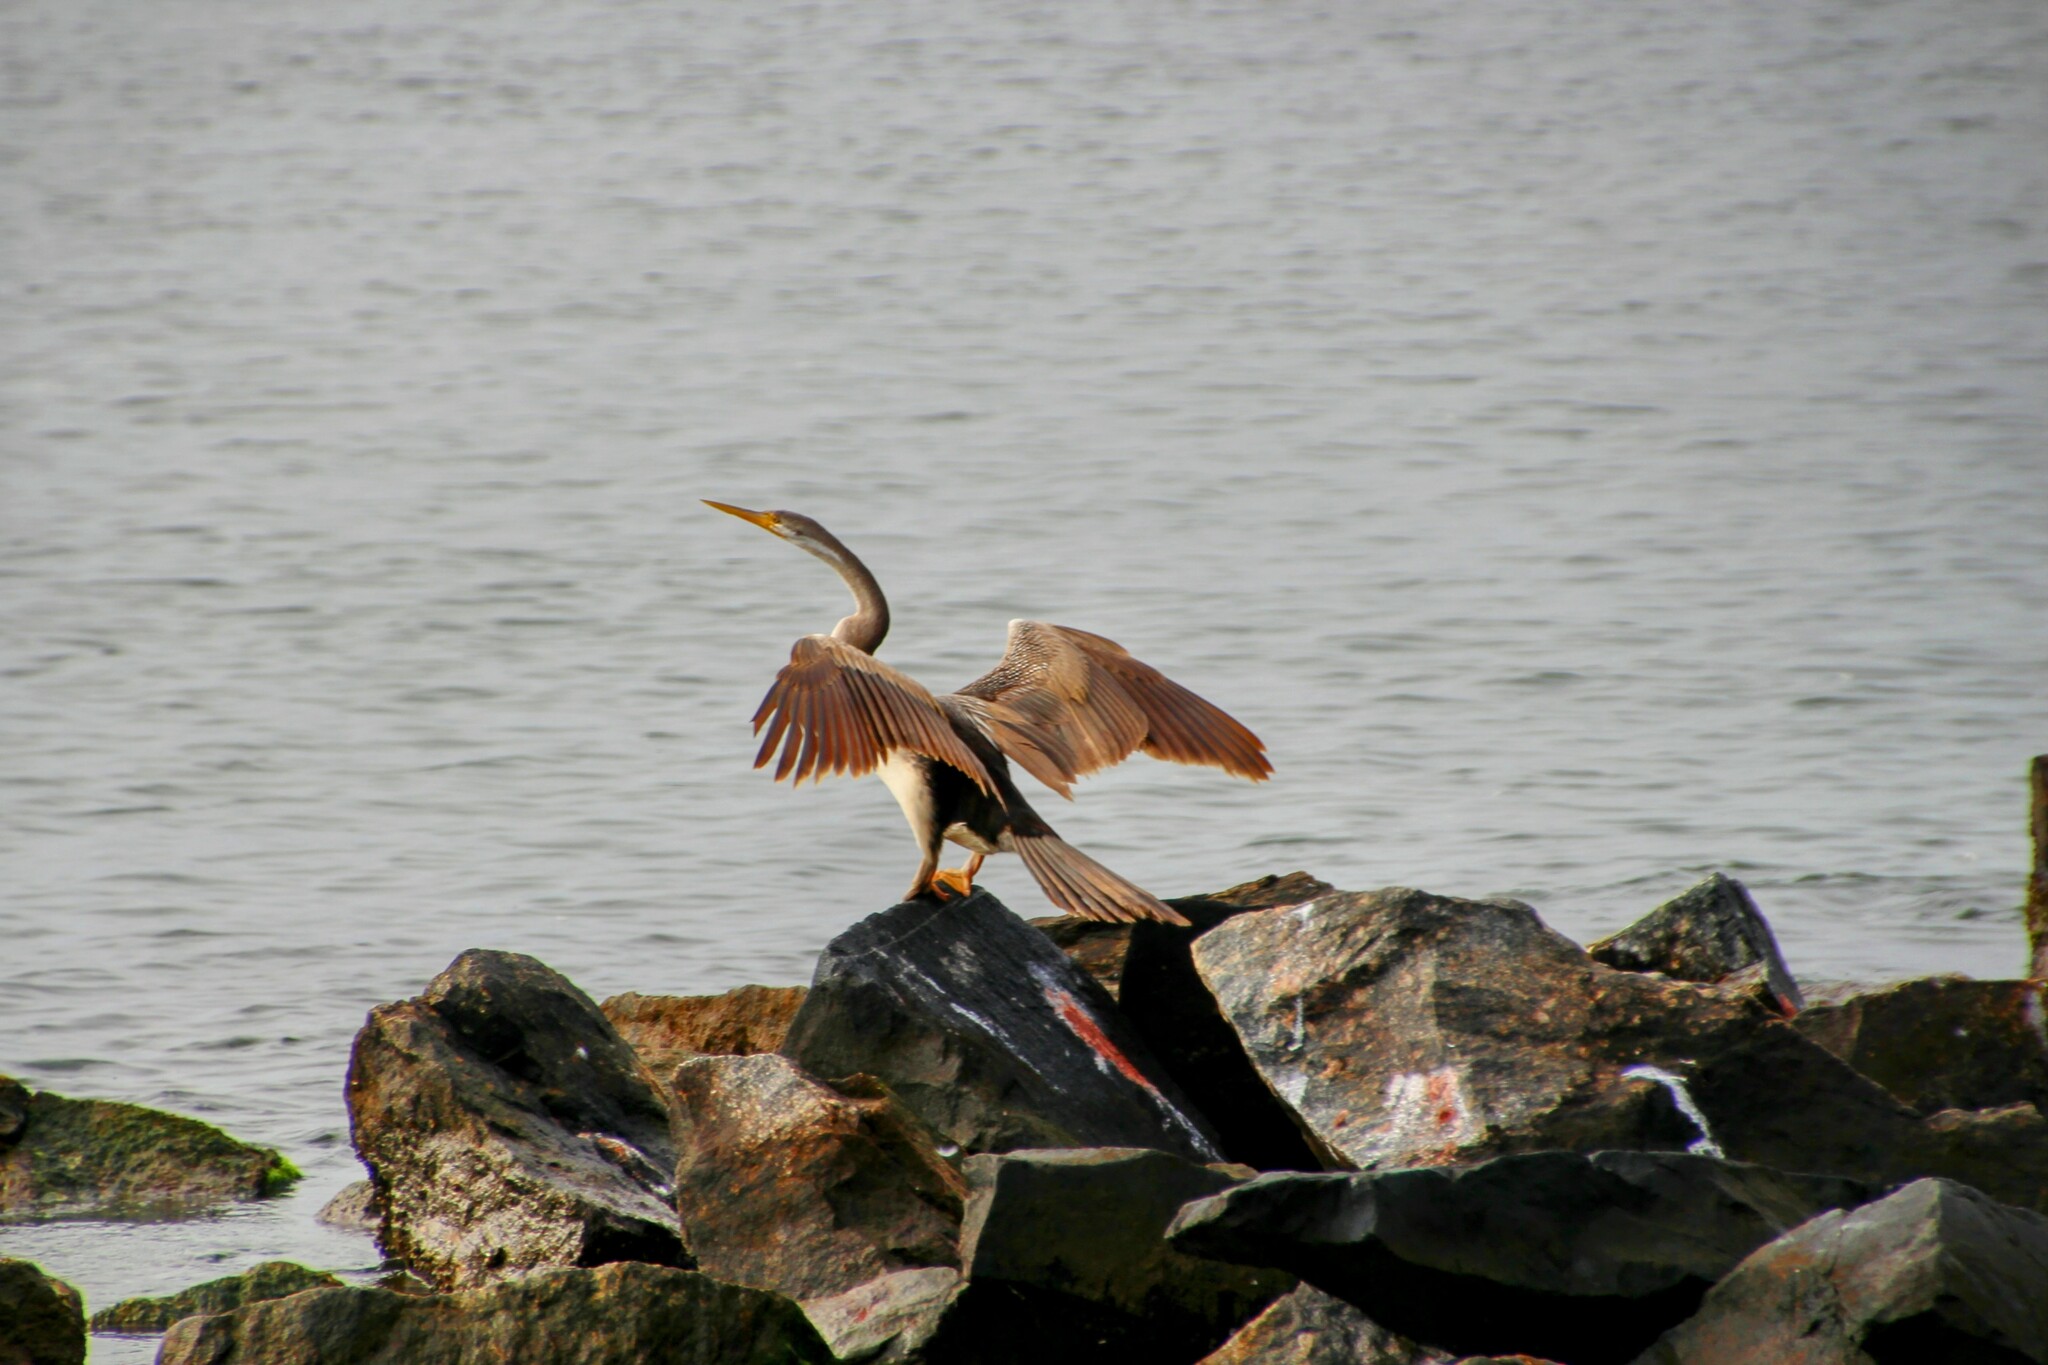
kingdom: Animalia
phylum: Chordata
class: Aves
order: Suliformes
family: Anhingidae
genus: Anhinga
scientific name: Anhinga novaehollandiae
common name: Australasian darter
